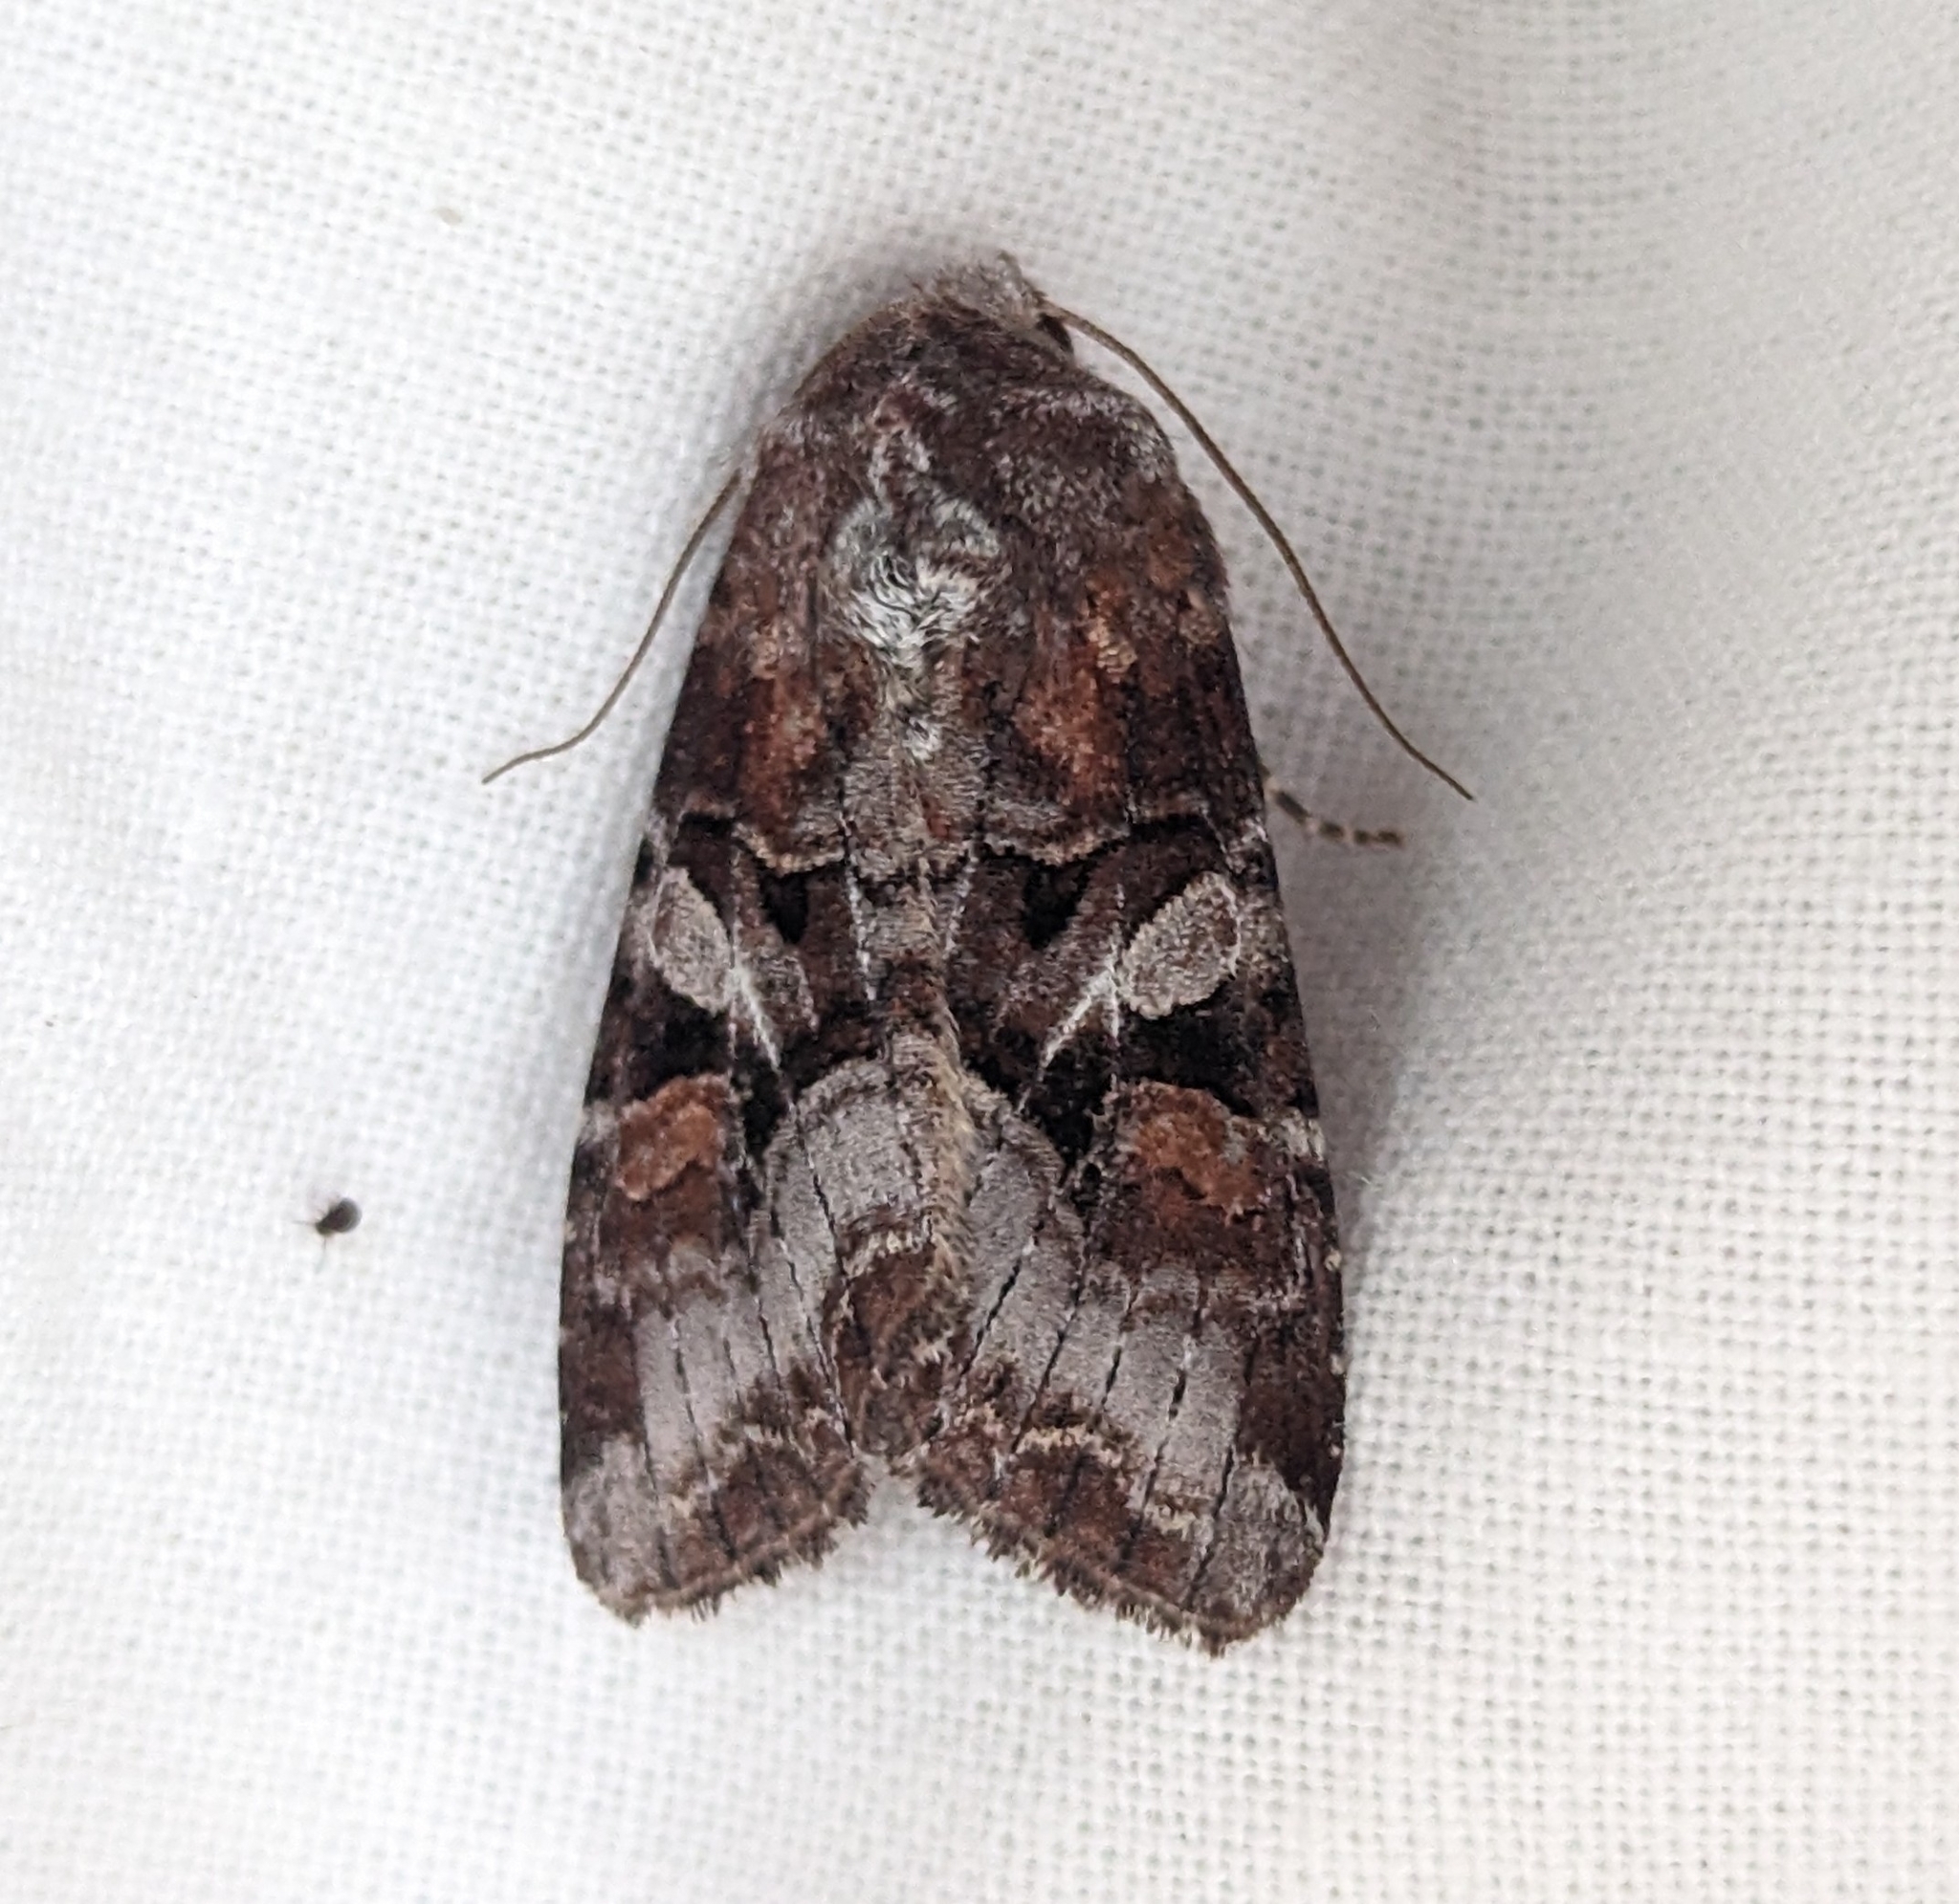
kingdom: Animalia
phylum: Arthropoda
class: Insecta
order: Lepidoptera
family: Noctuidae
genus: Trichordestra
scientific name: Trichordestra tacoma
